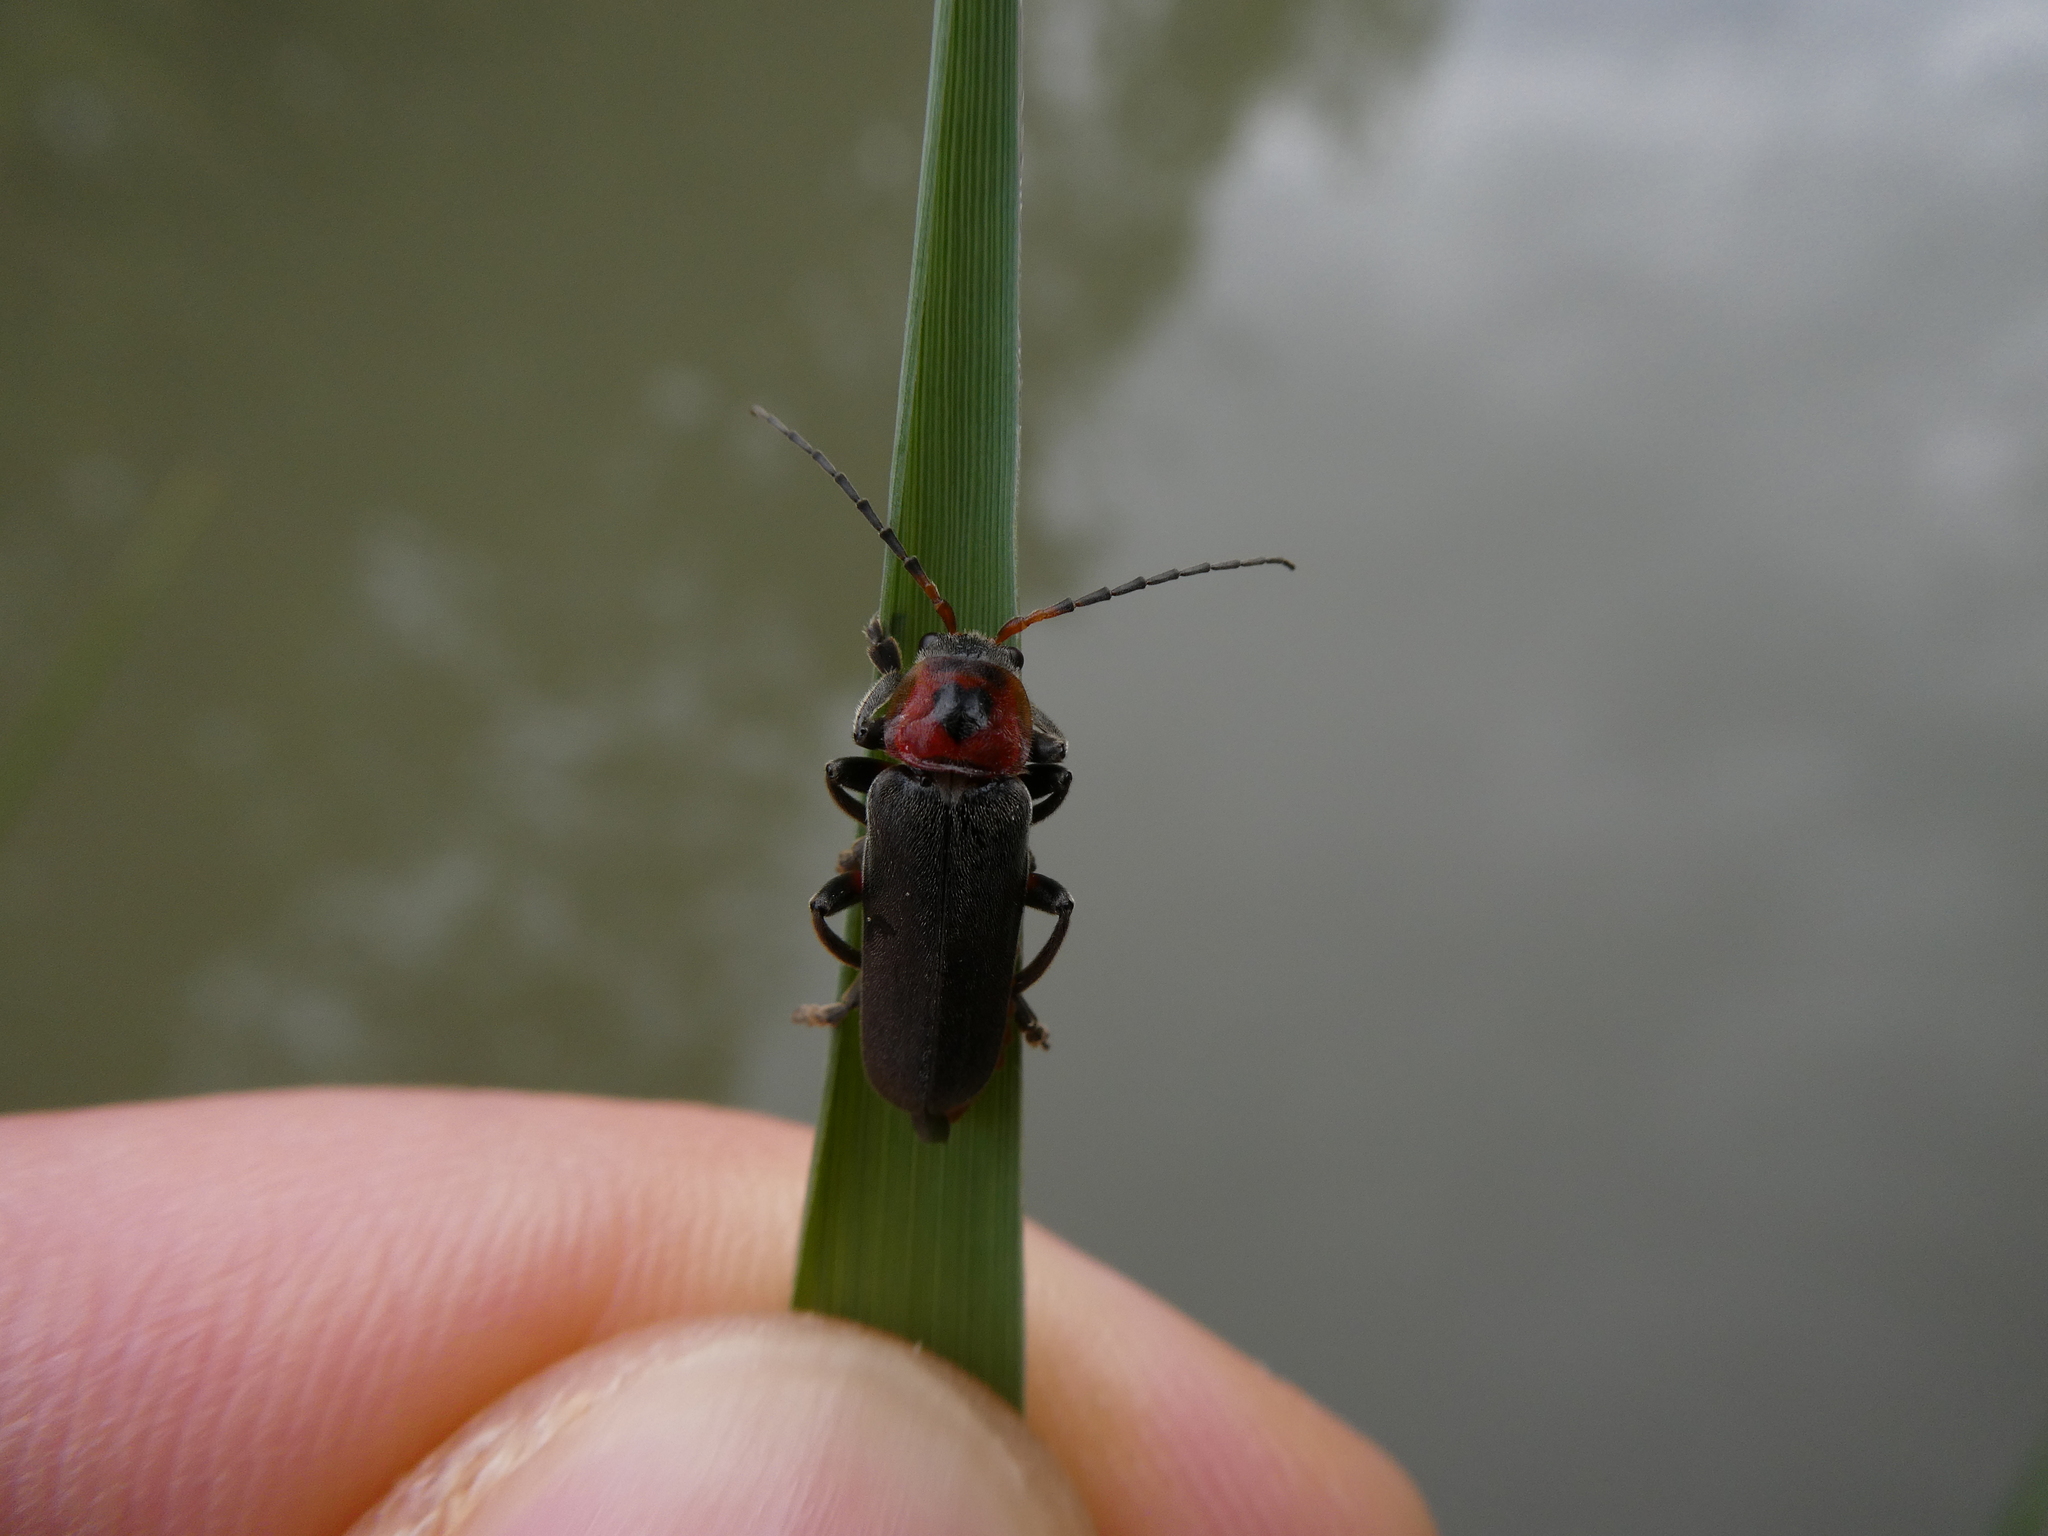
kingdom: Animalia
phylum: Arthropoda
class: Insecta
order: Coleoptera
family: Cantharidae
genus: Cantharis
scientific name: Cantharis rustica
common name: Soldier beetle
